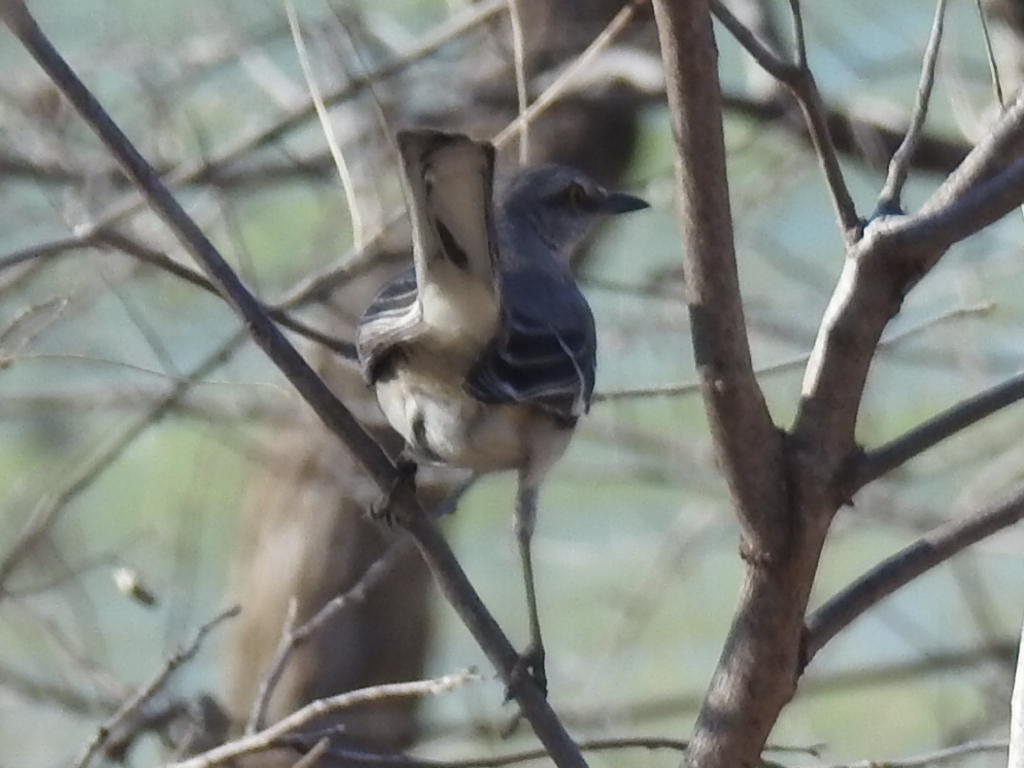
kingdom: Animalia
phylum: Chordata
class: Aves
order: Passeriformes
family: Mimidae
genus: Mimus
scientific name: Mimus polyglottos
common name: Northern mockingbird
